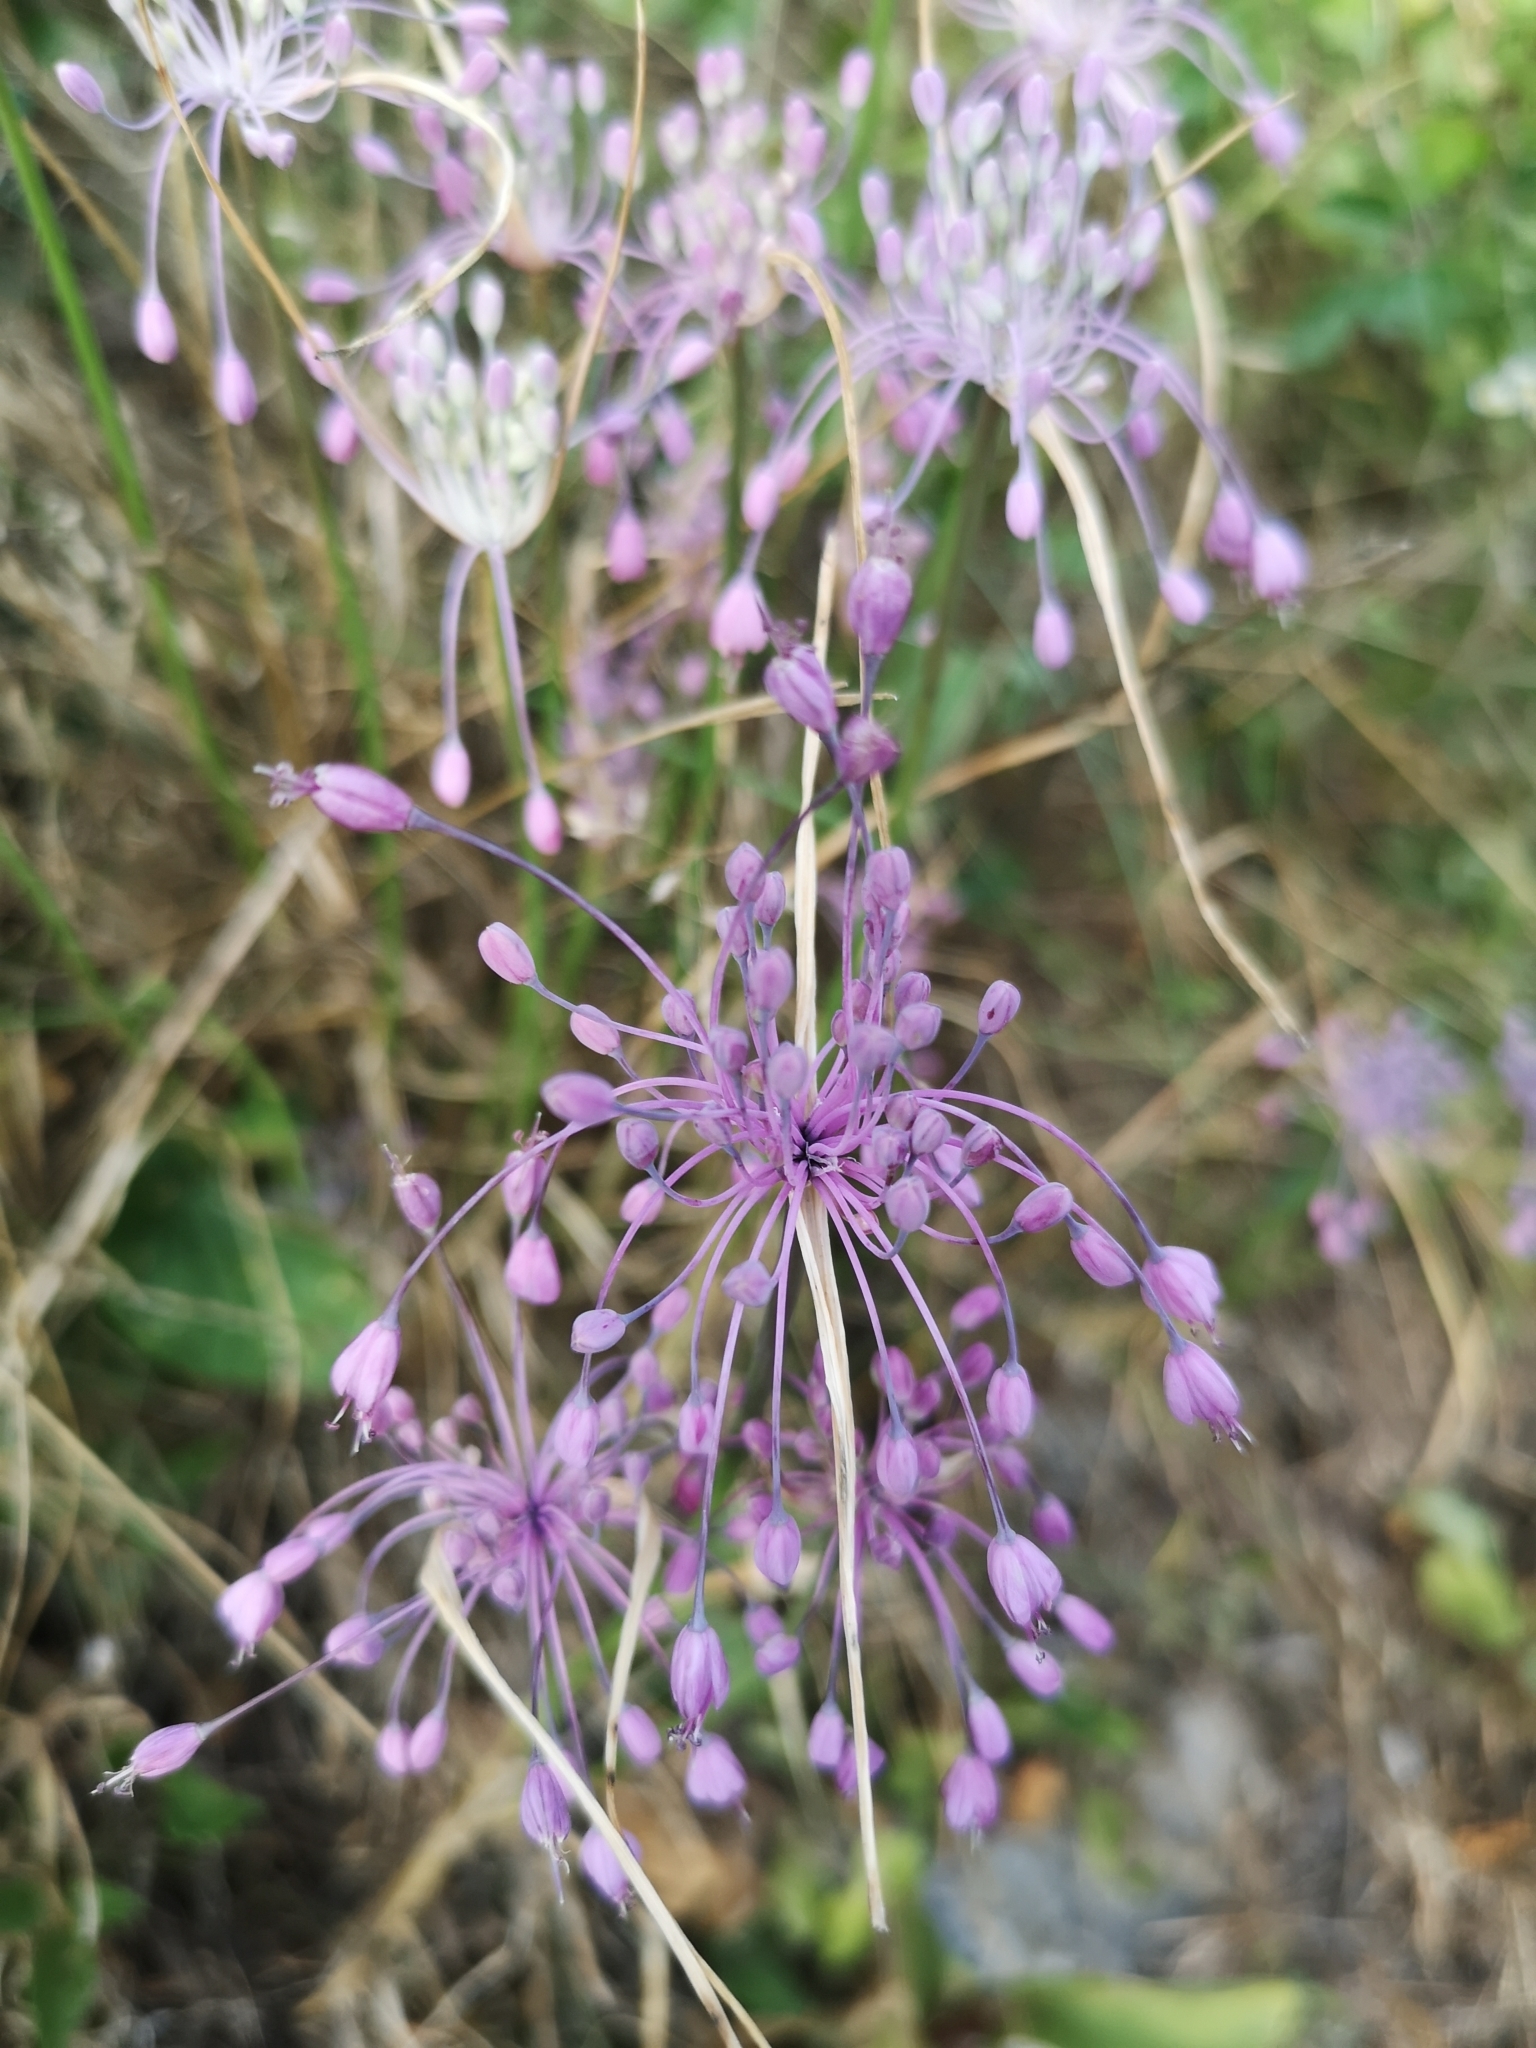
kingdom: Plantae
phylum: Tracheophyta
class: Liliopsida
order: Asparagales
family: Amaryllidaceae
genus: Allium
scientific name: Allium coloratum
